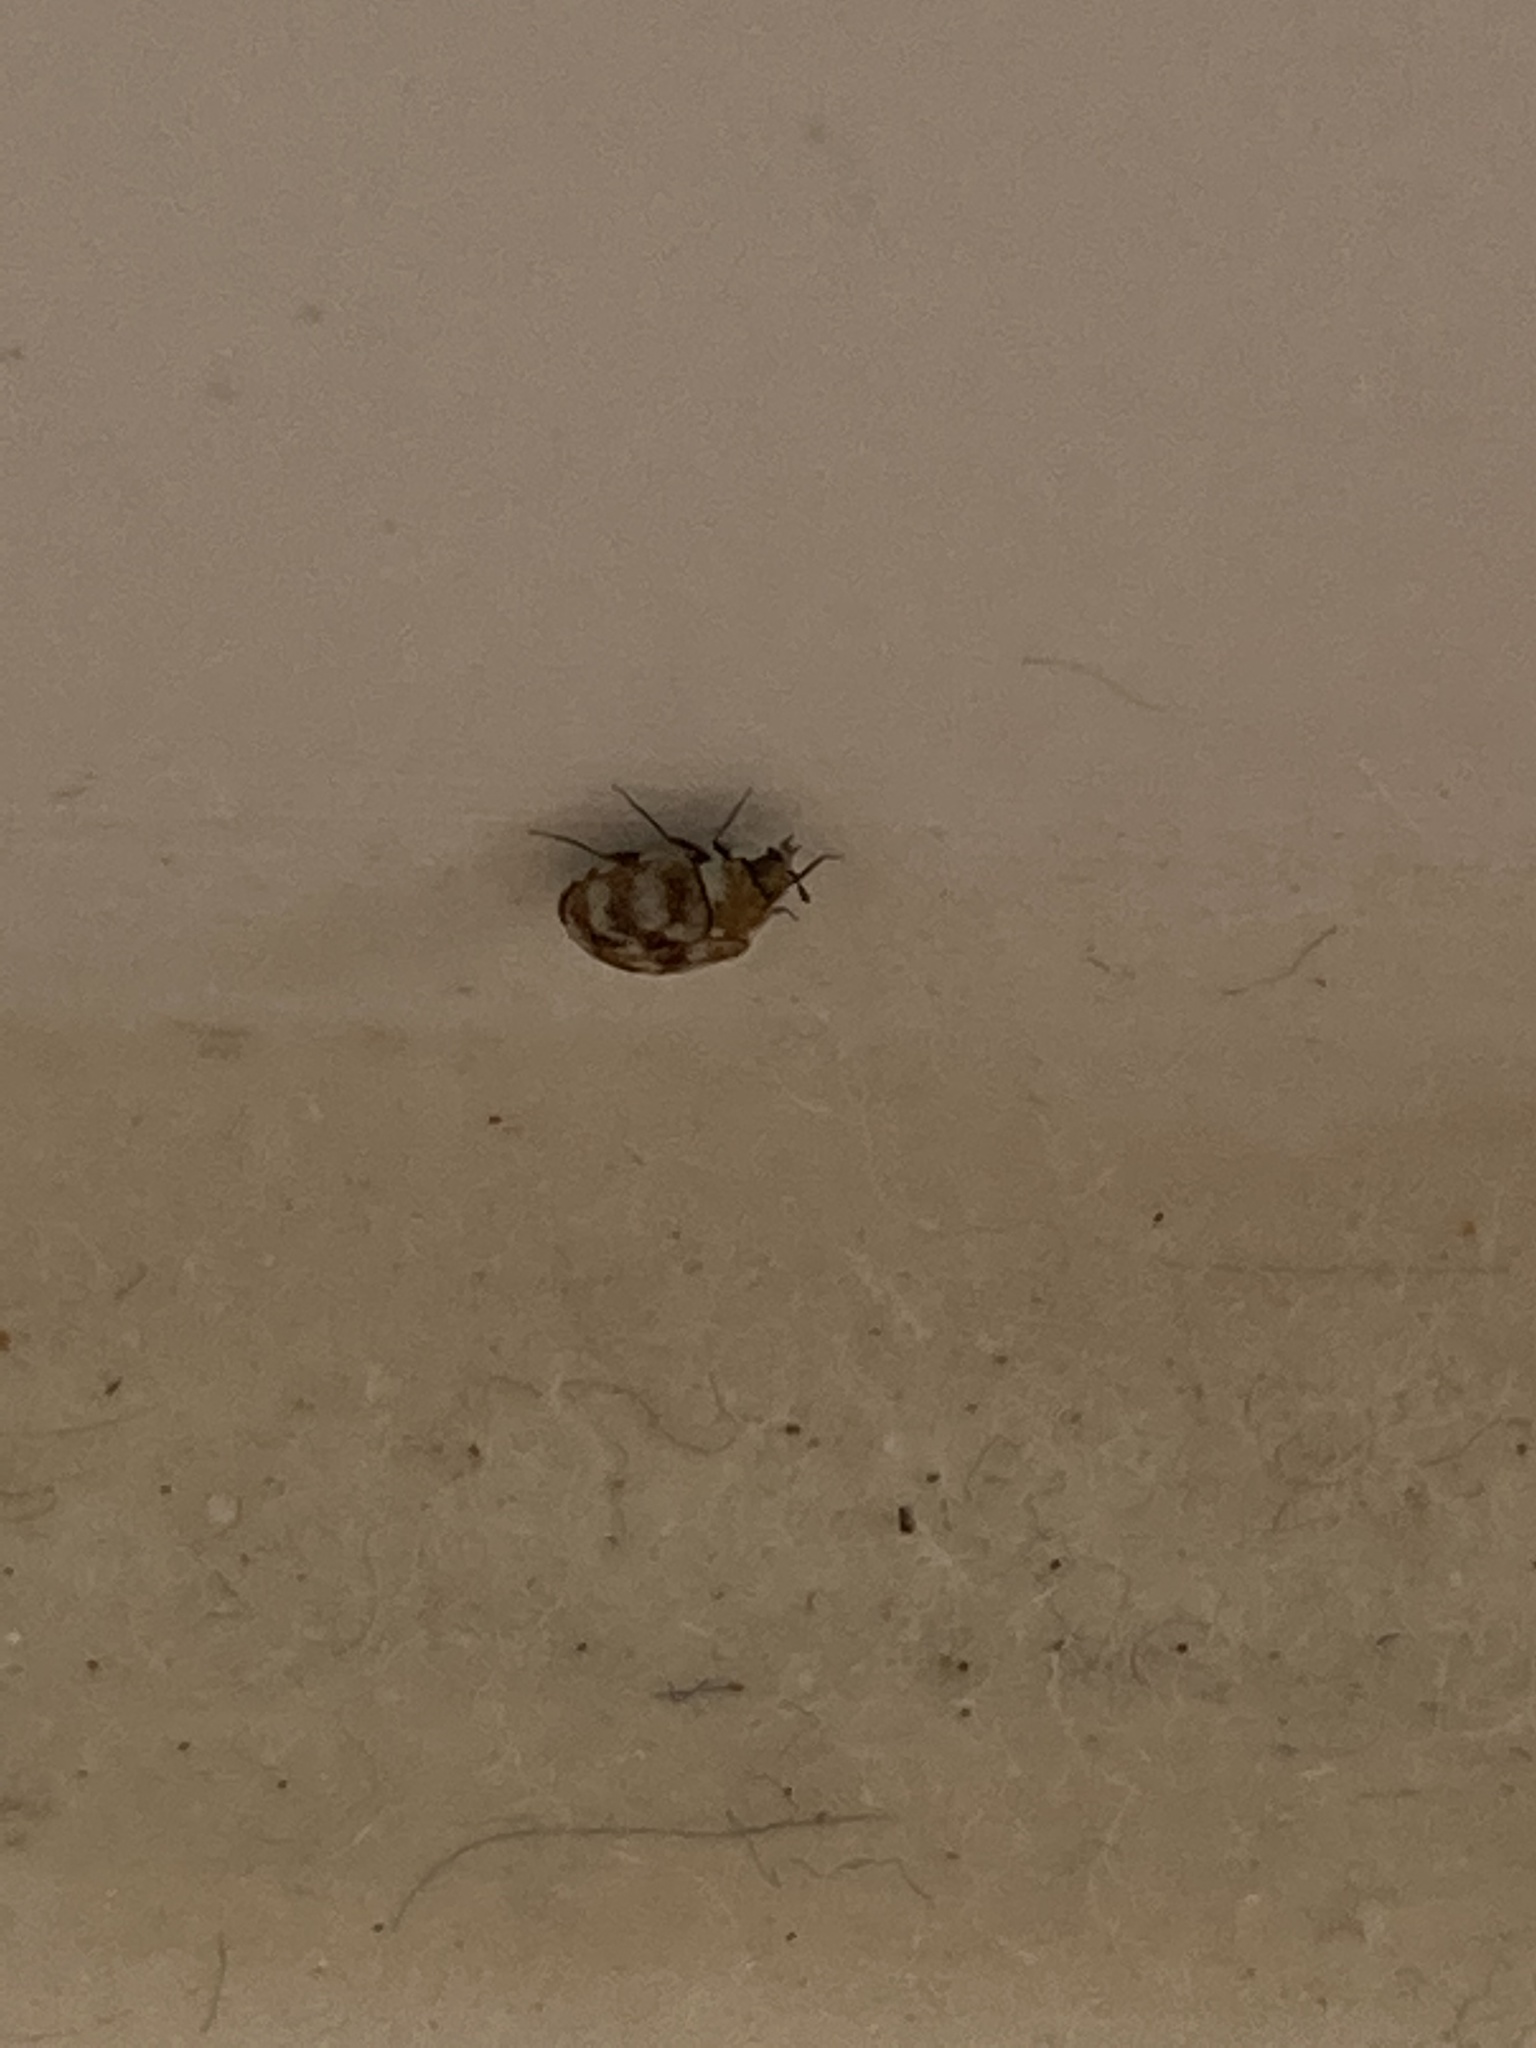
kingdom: Animalia
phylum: Arthropoda
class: Insecta
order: Coleoptera
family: Dermestidae
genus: Anthrenus
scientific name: Anthrenus verbasci
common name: Varied carpet beetle
